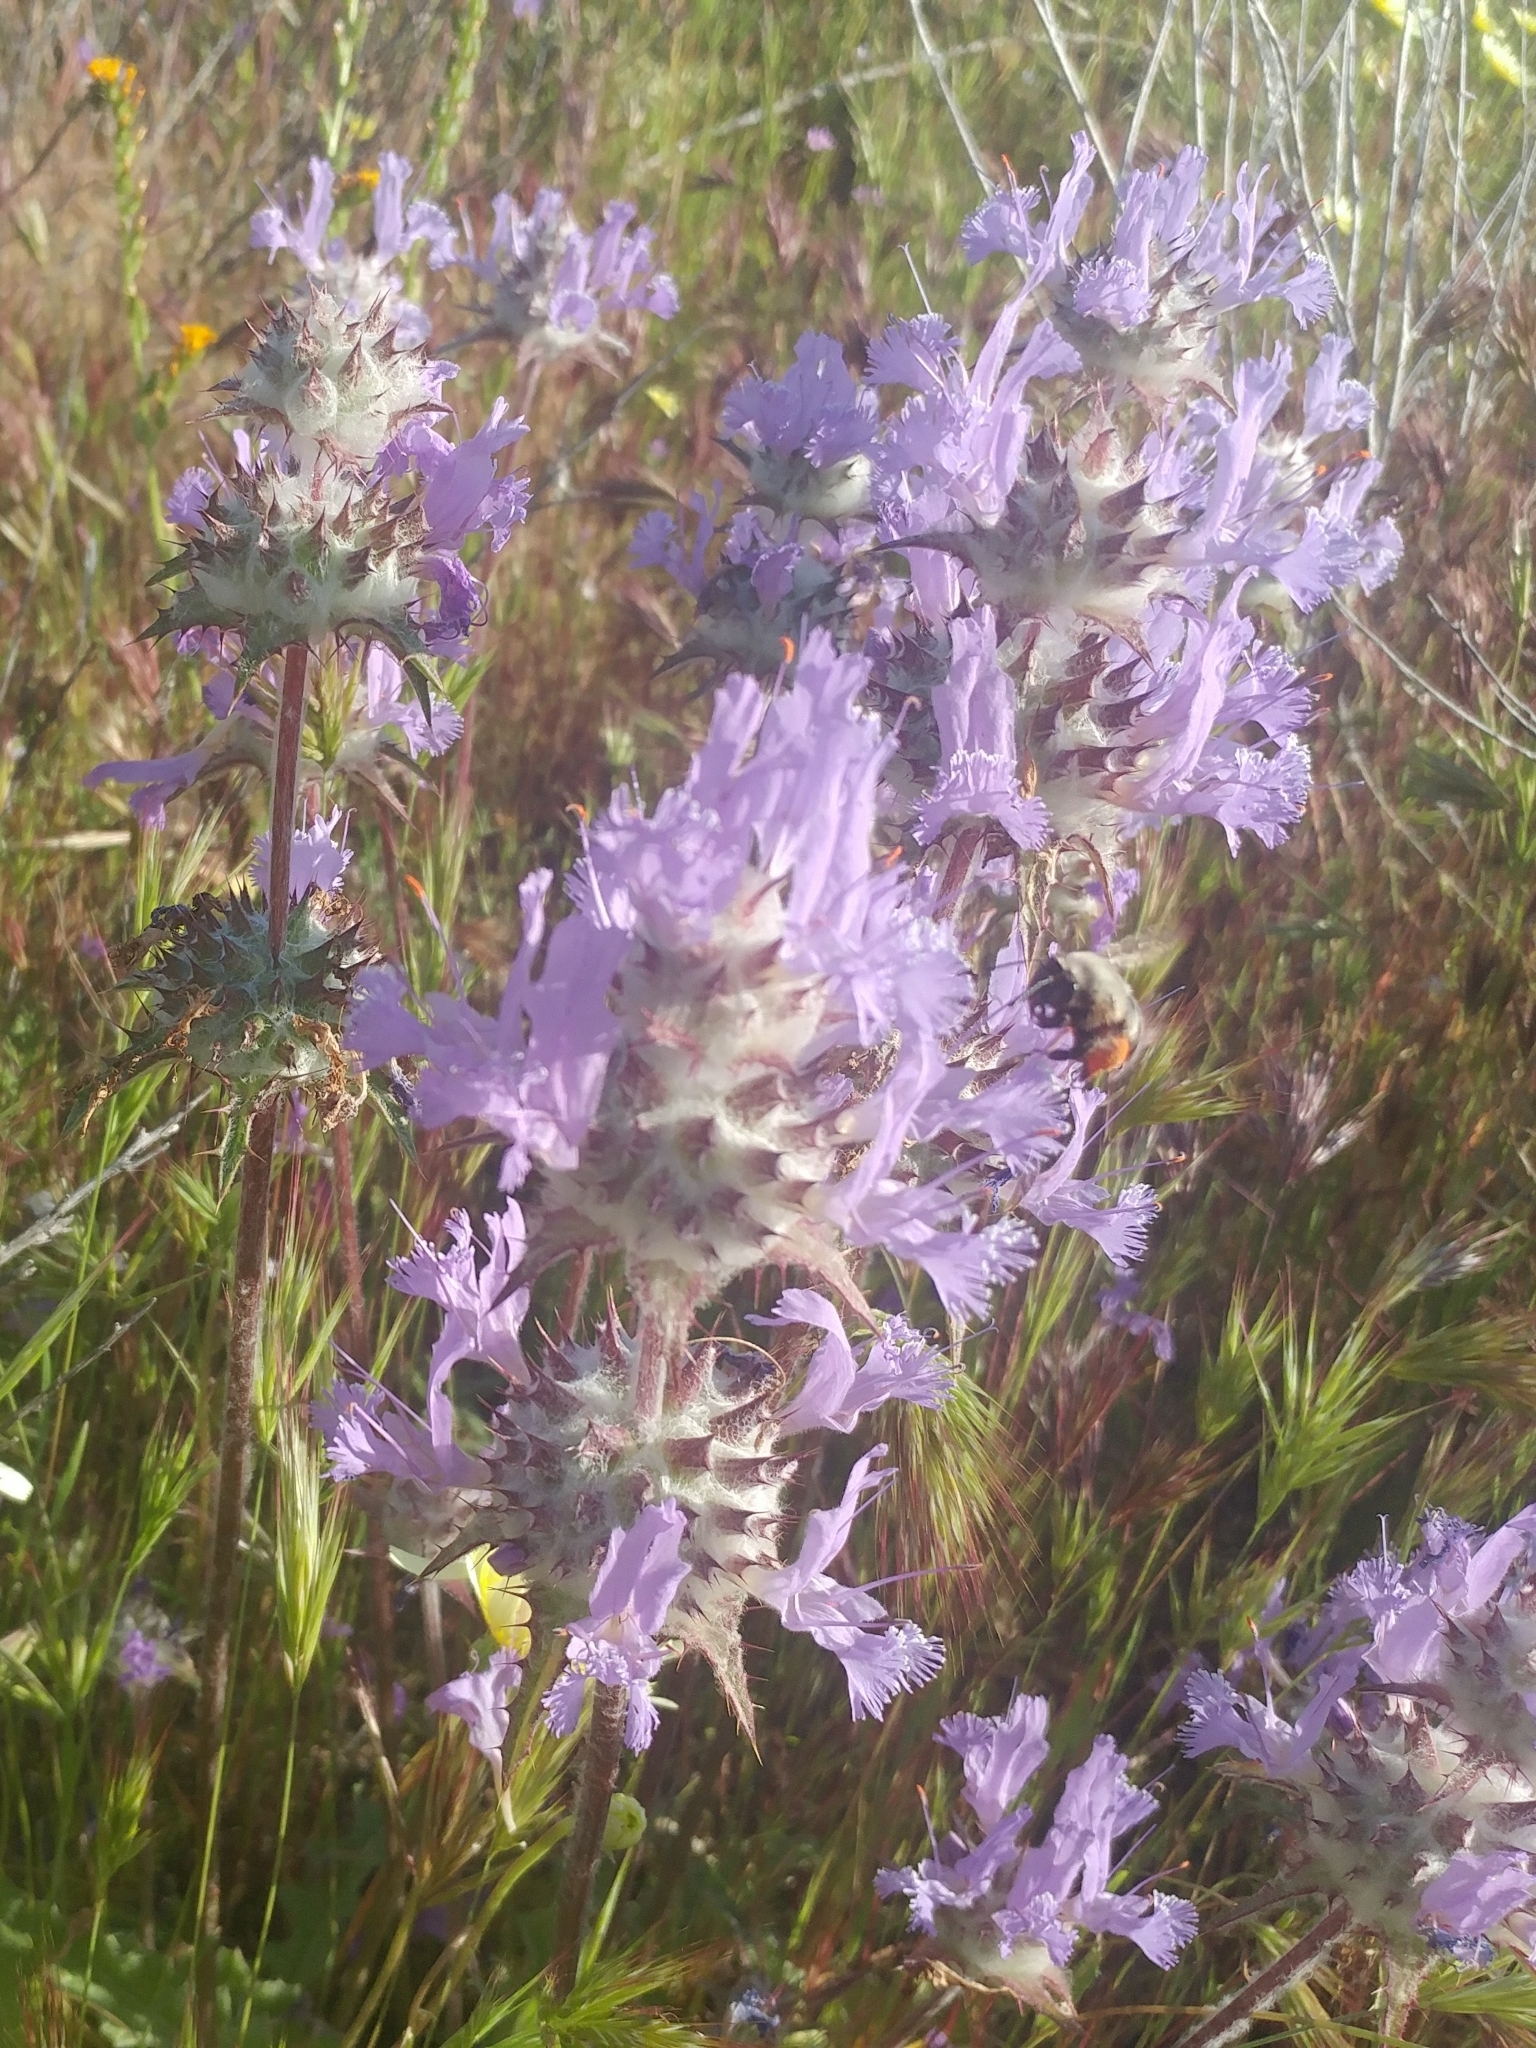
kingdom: Plantae
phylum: Tracheophyta
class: Magnoliopsida
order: Lamiales
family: Lamiaceae
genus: Salvia
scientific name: Salvia carduacea
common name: Thistle sage
